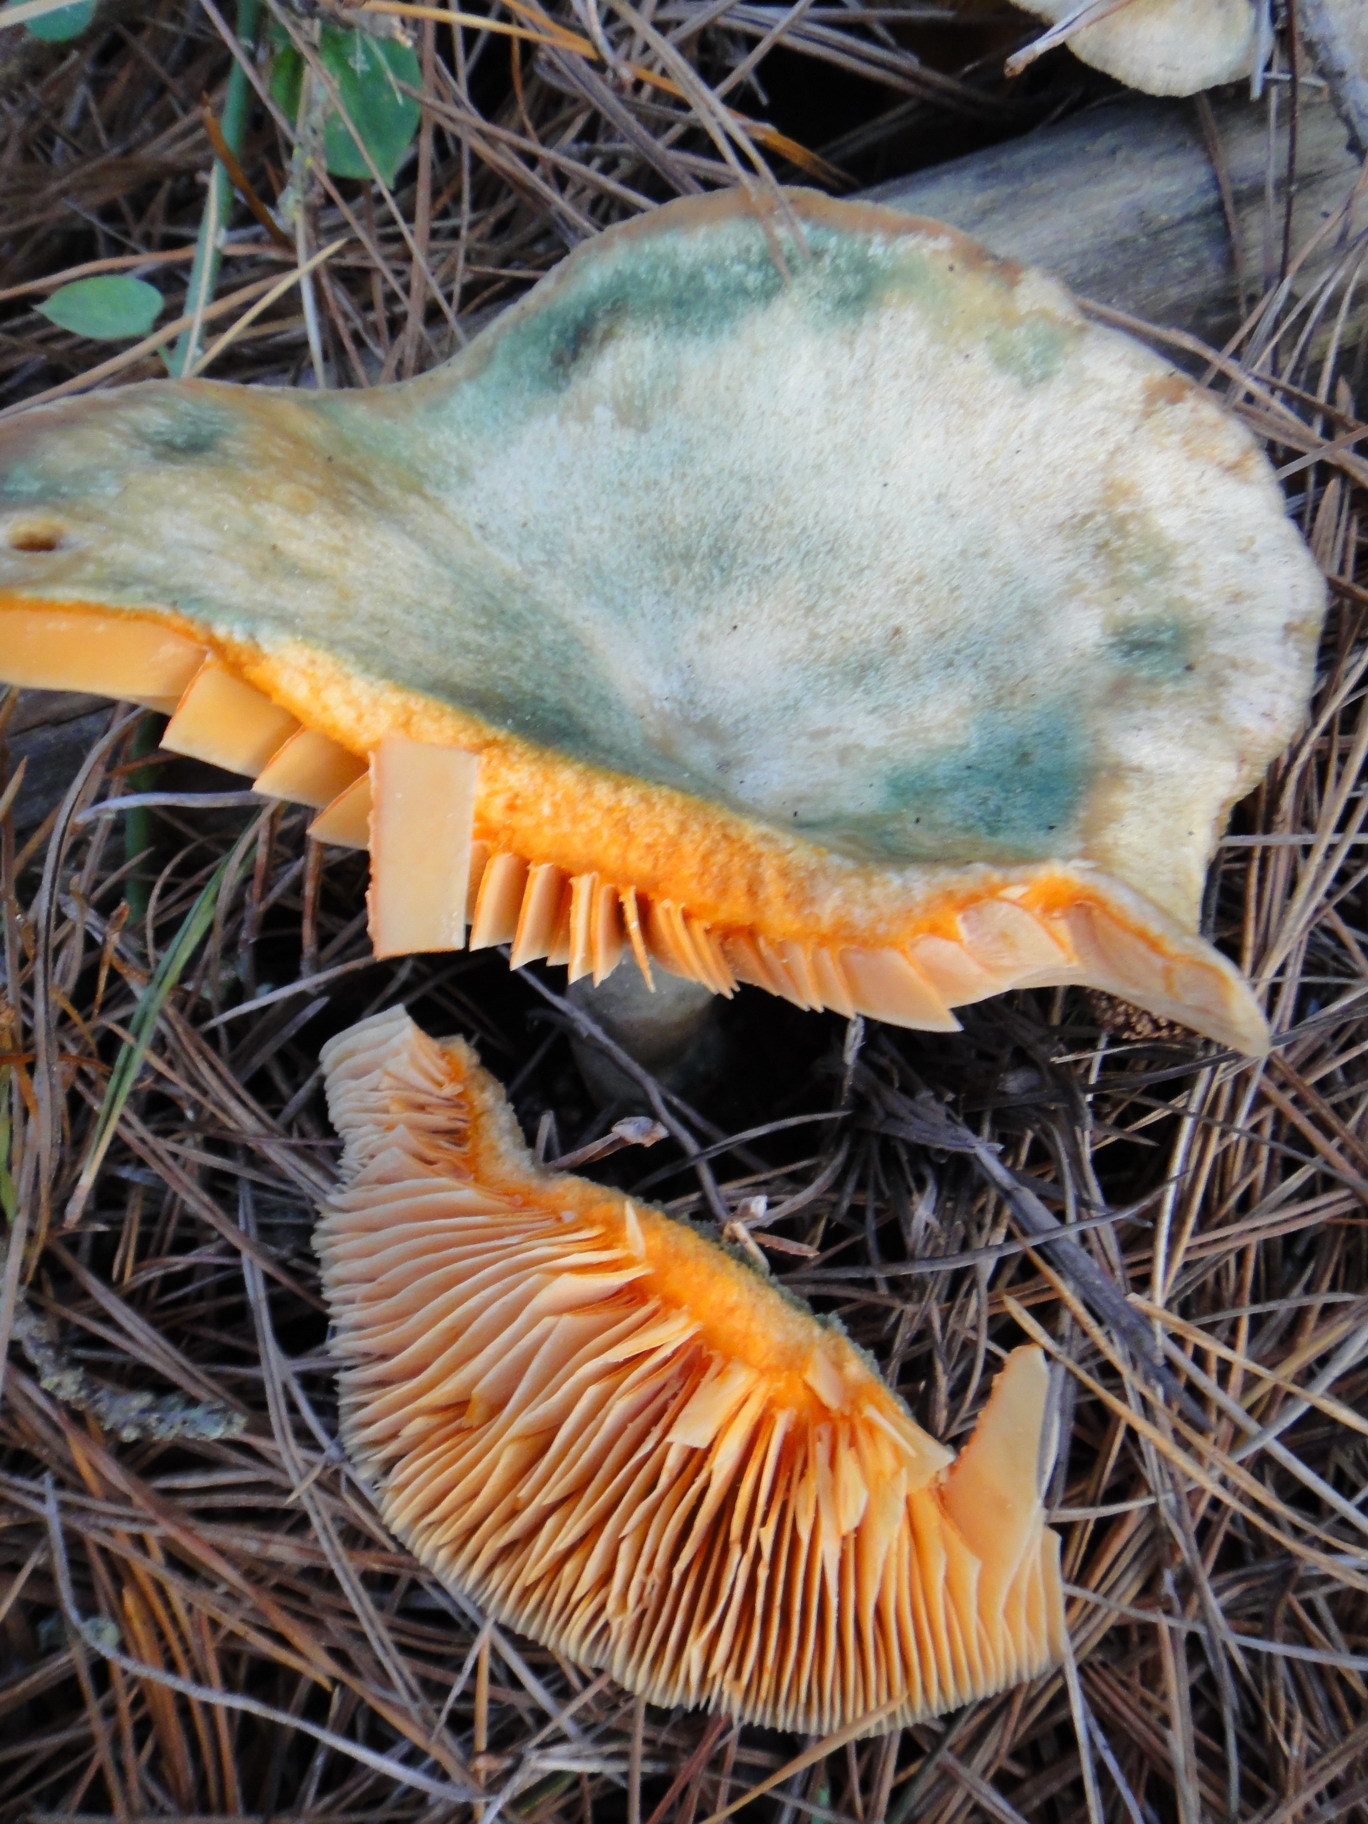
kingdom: Fungi
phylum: Basidiomycota
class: Agaricomycetes
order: Russulales
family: Russulaceae
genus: Lactarius
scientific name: Lactarius deliciosus
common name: Saffron milk-cap
